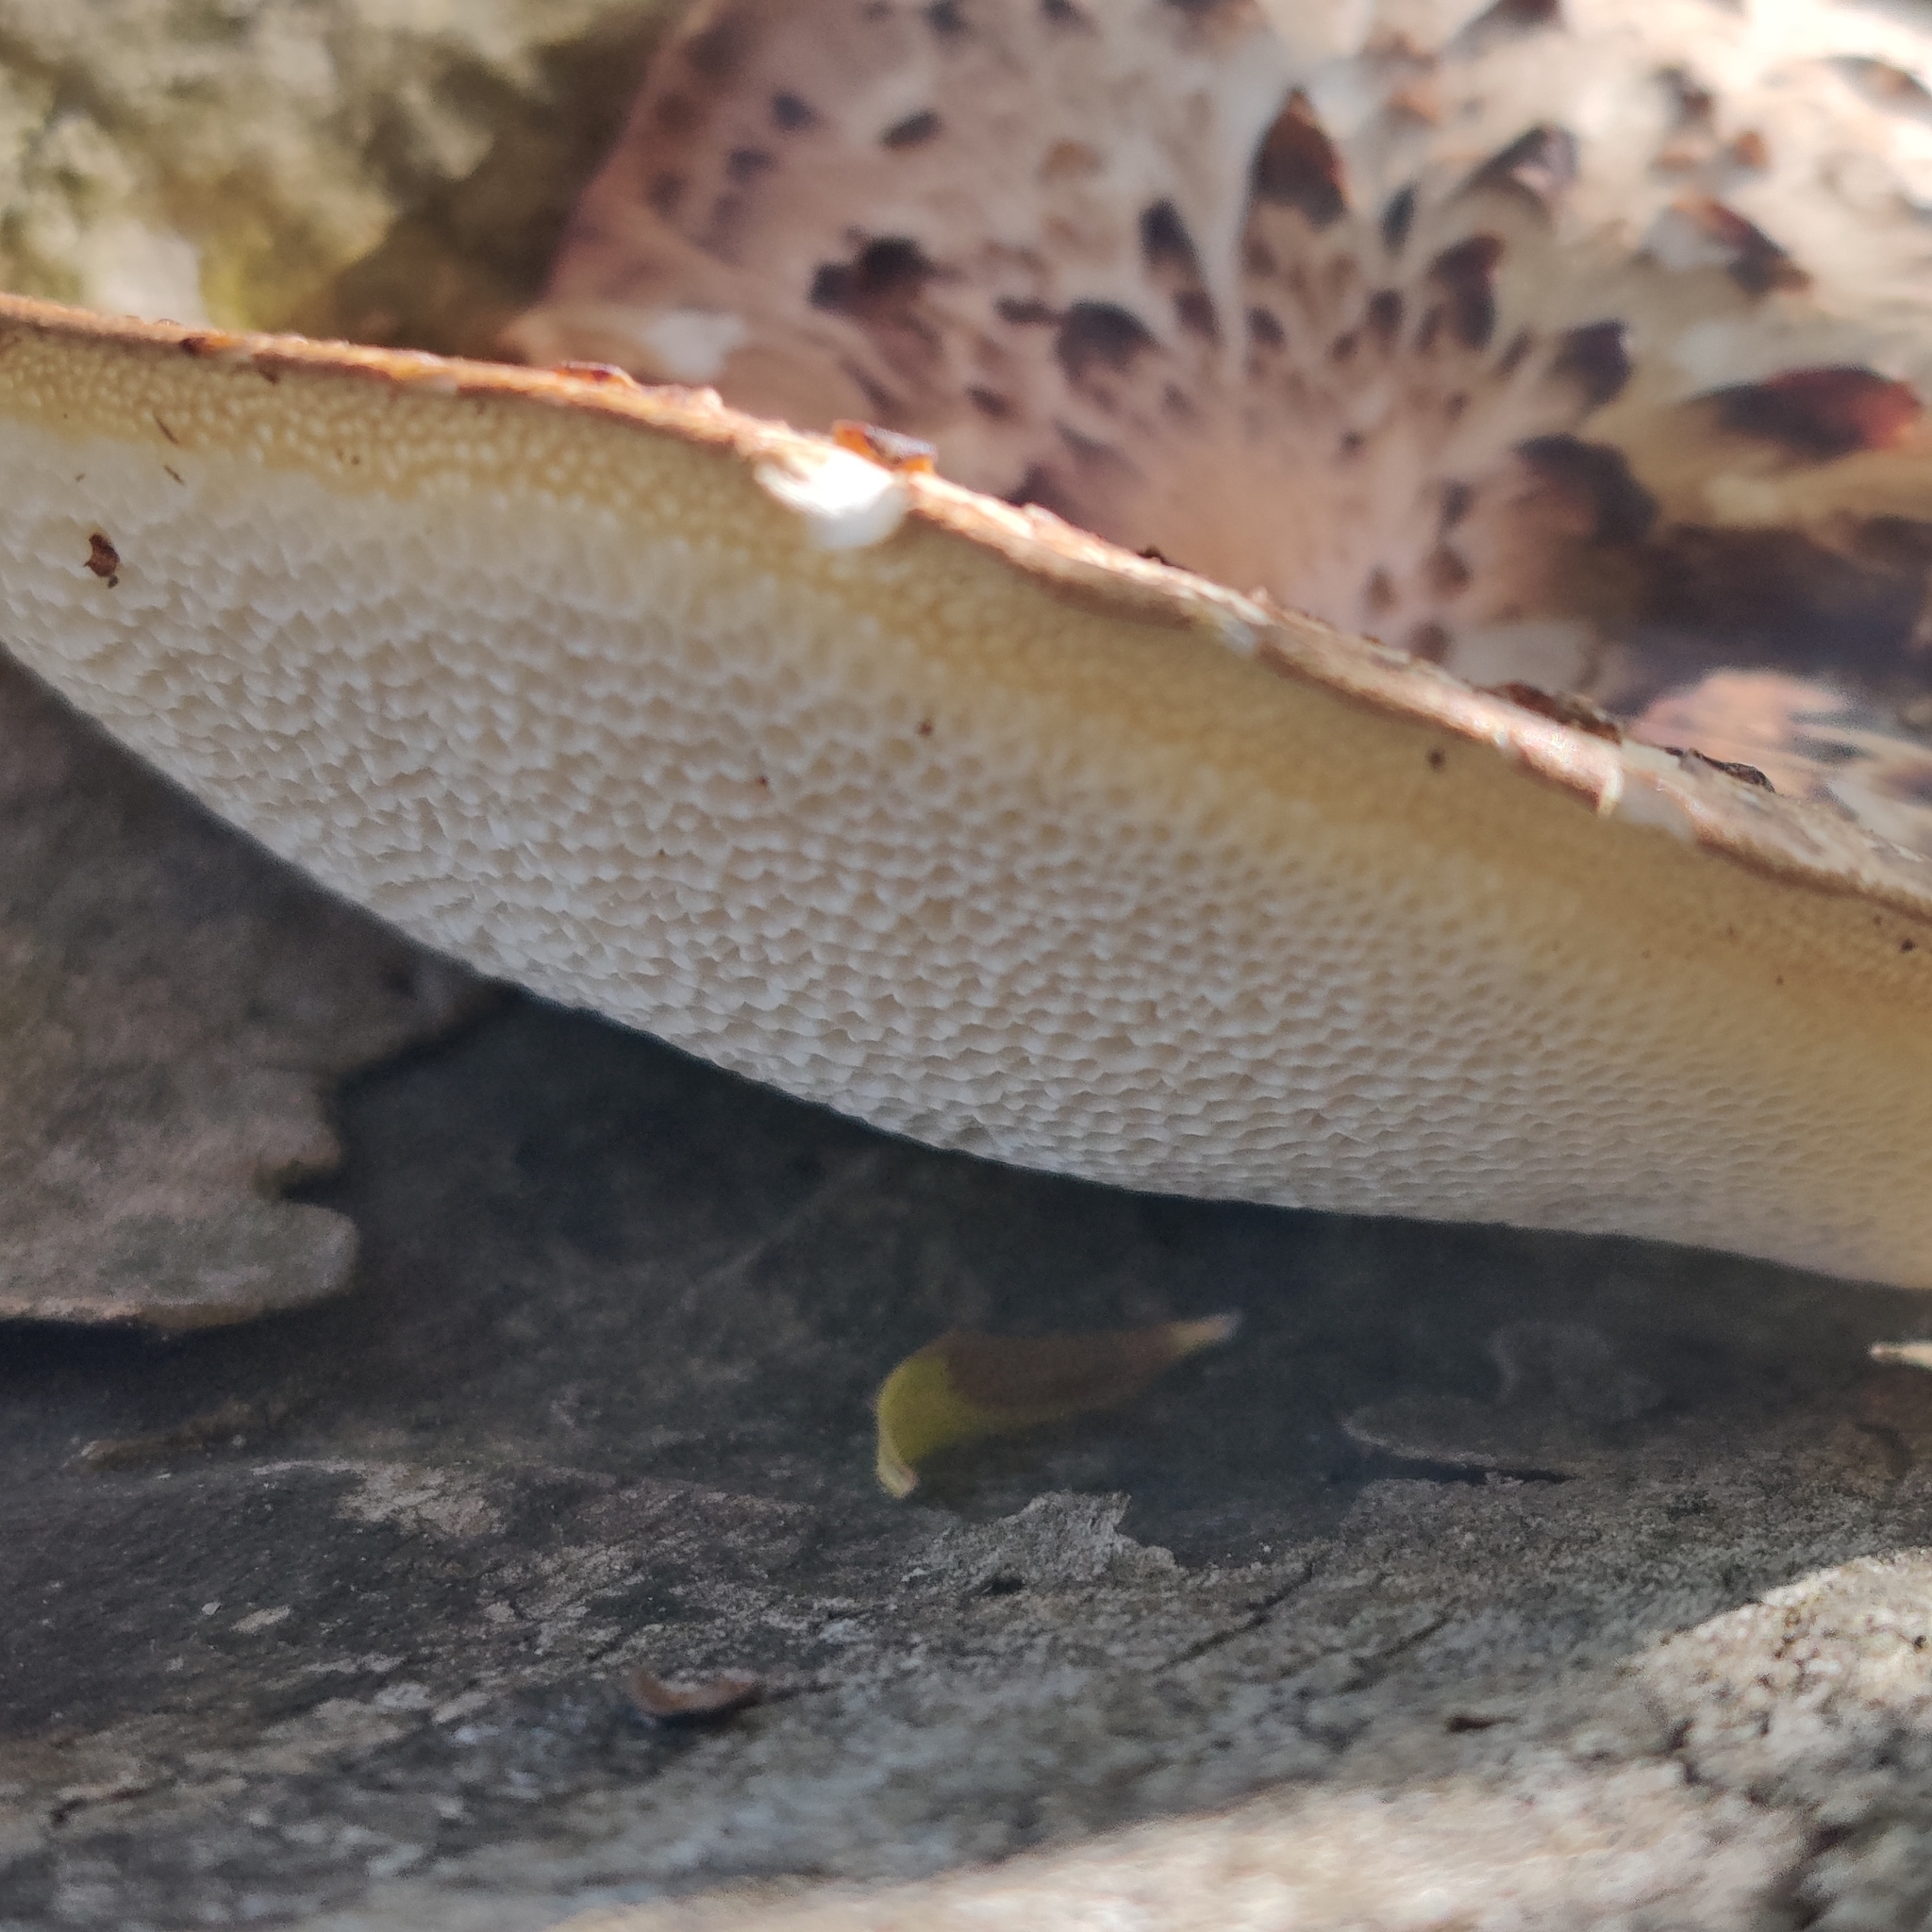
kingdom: Fungi
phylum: Basidiomycota
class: Agaricomycetes
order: Polyporales
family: Polyporaceae
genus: Cerioporus
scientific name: Cerioporus squamosus
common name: Dryad's saddle
